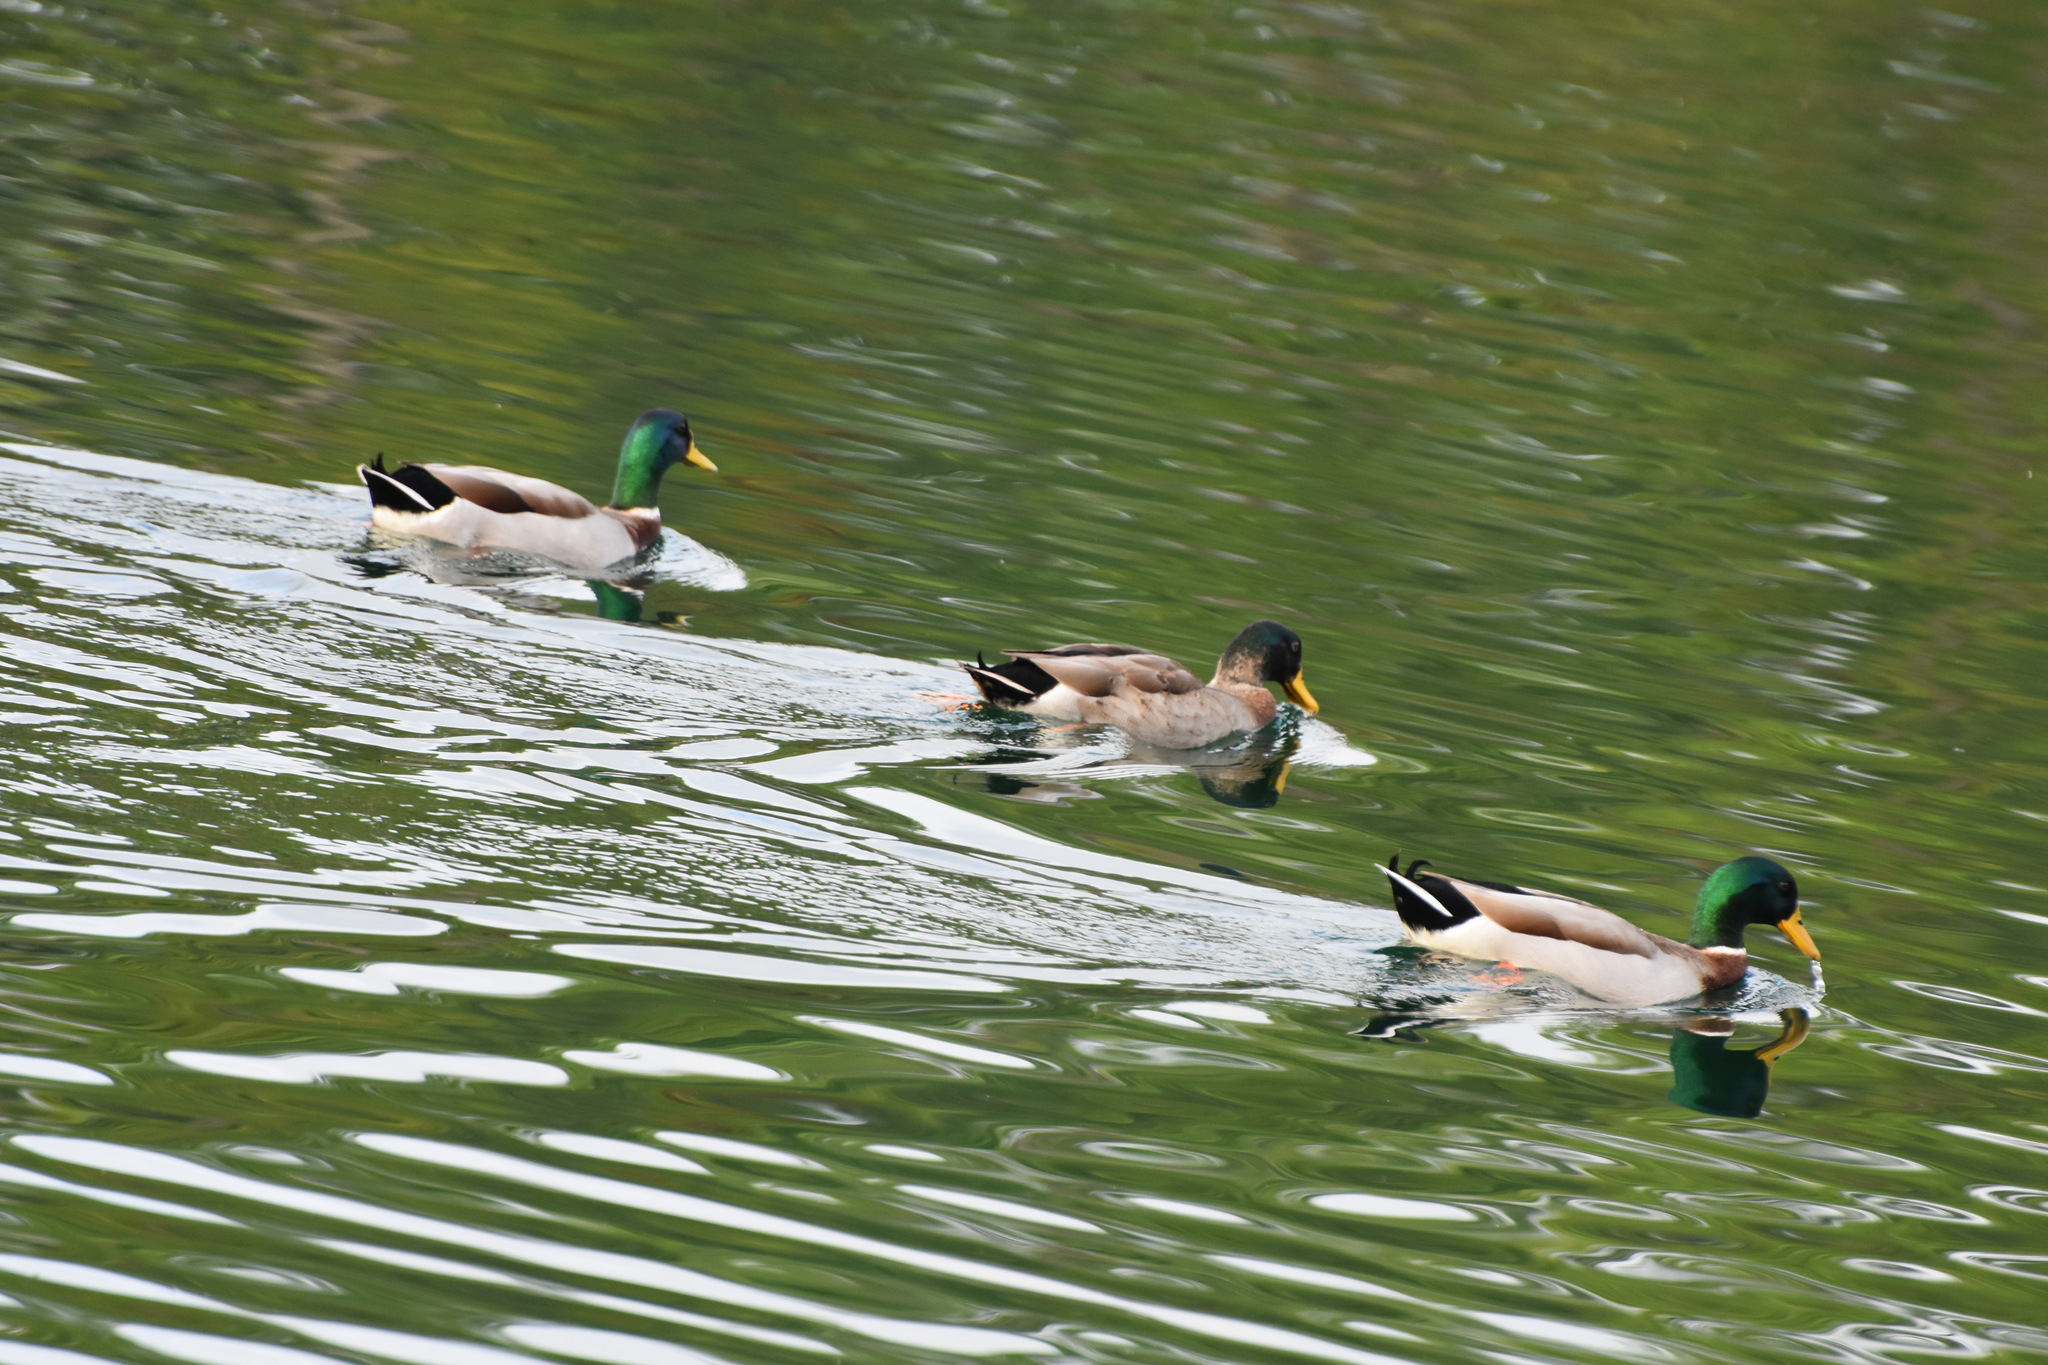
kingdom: Animalia
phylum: Chordata
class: Aves
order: Anseriformes
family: Anatidae
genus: Anas
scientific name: Anas platyrhynchos
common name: Mallard
